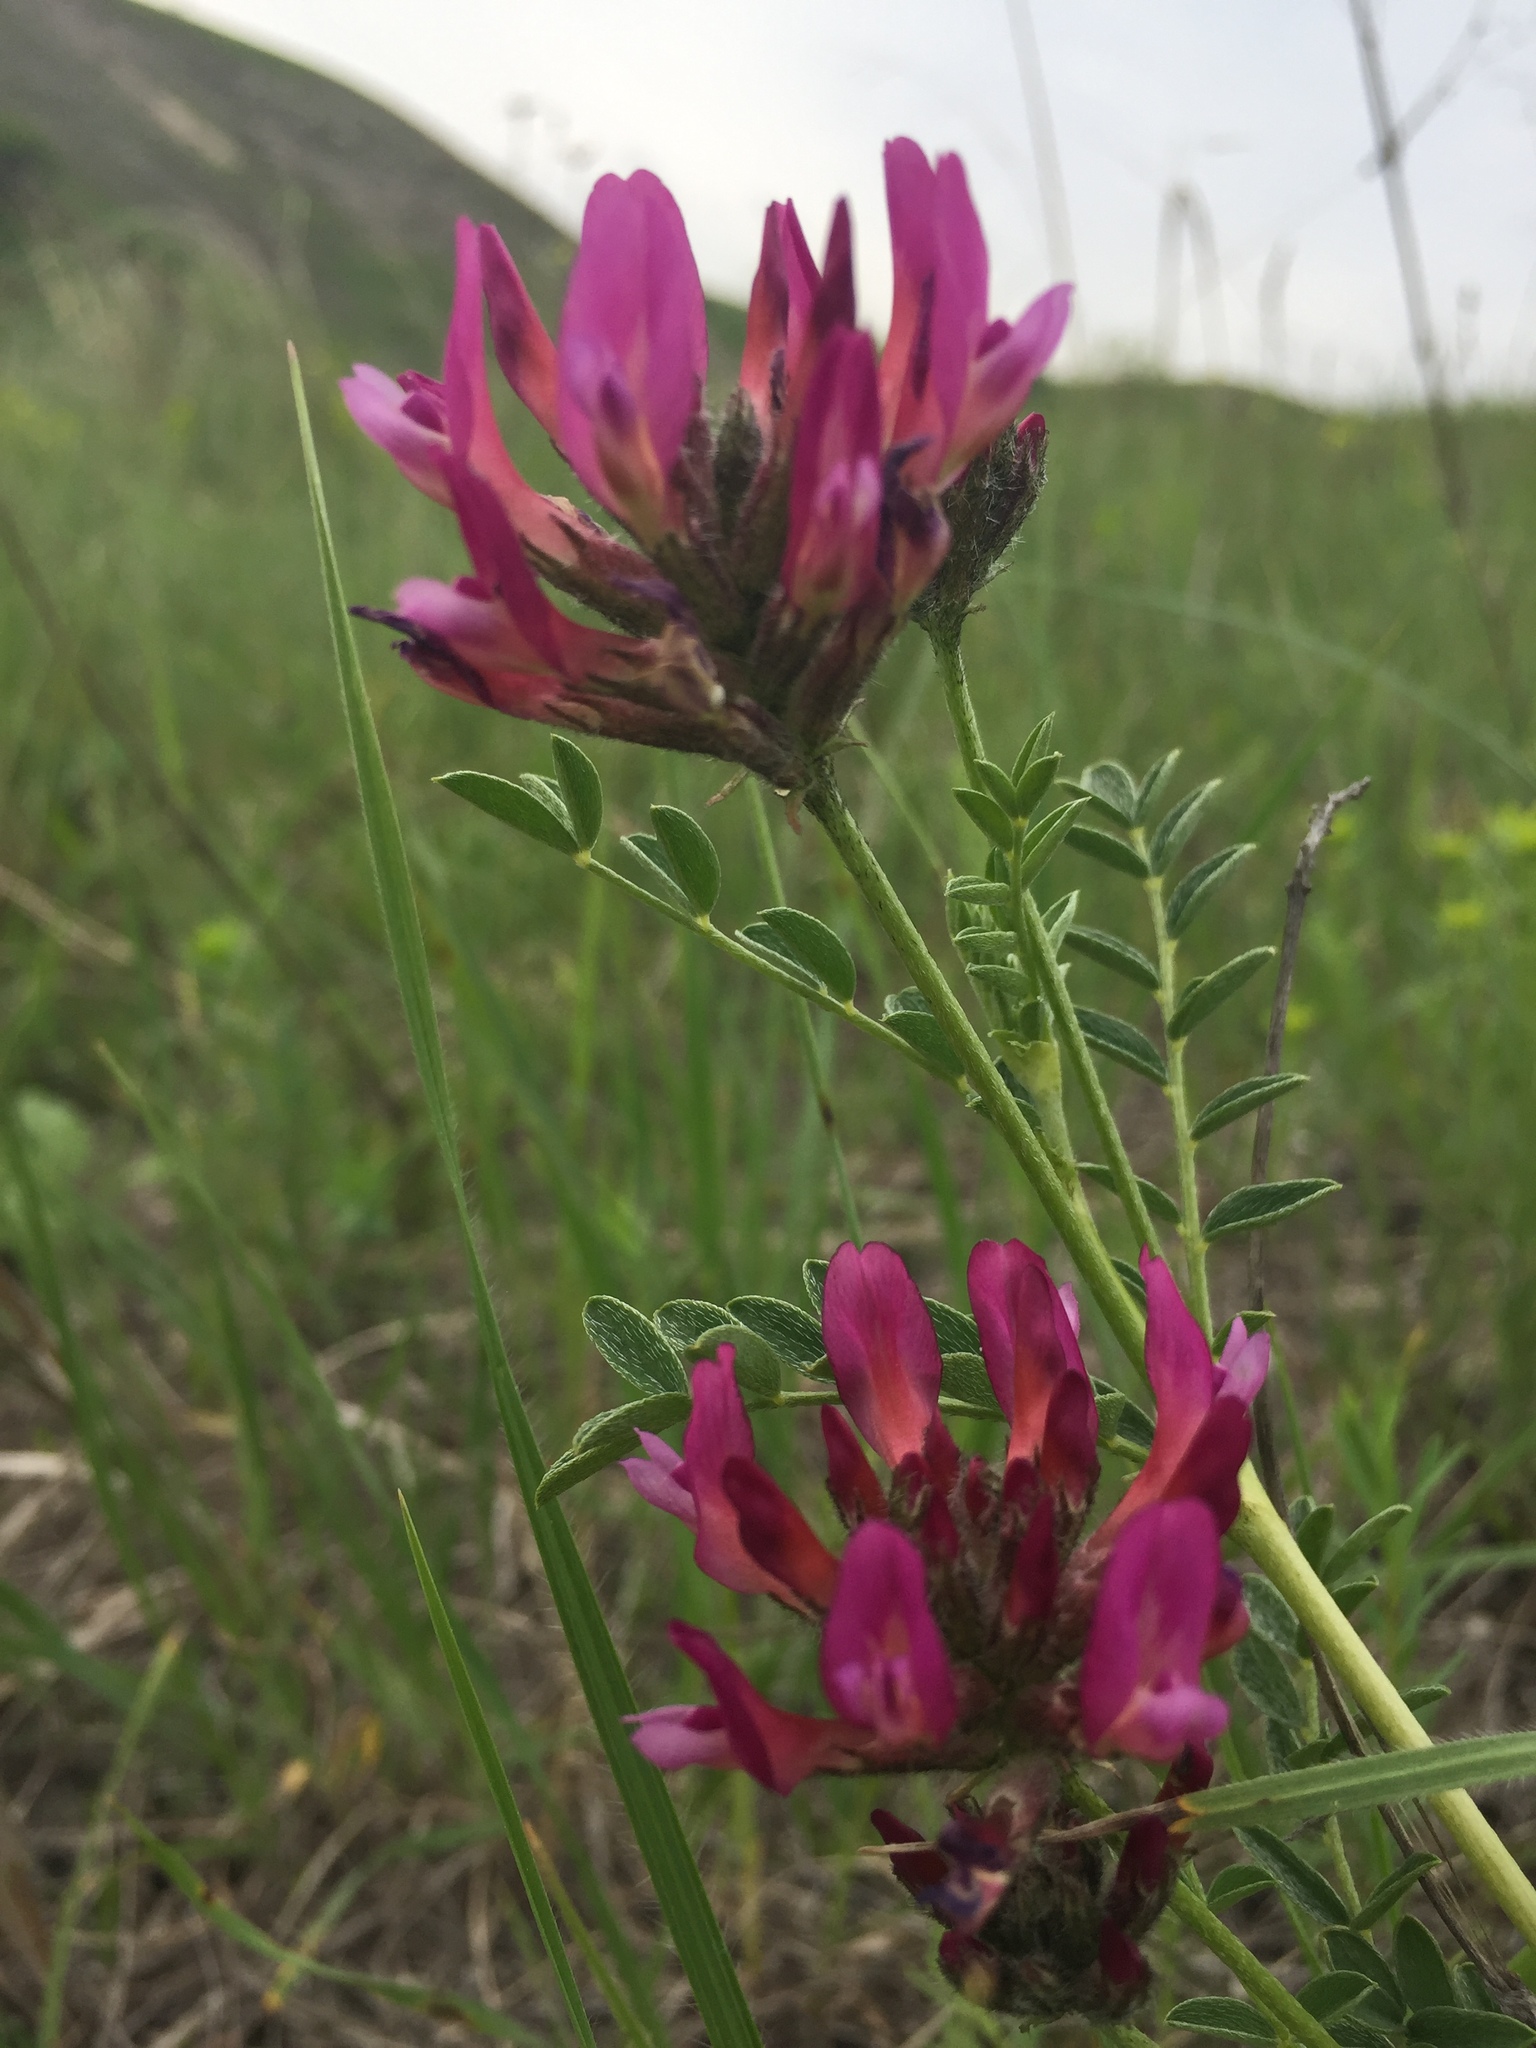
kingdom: Plantae
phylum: Tracheophyta
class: Magnoliopsida
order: Fabales
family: Fabaceae
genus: Astragalus
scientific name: Astragalus cornutus
